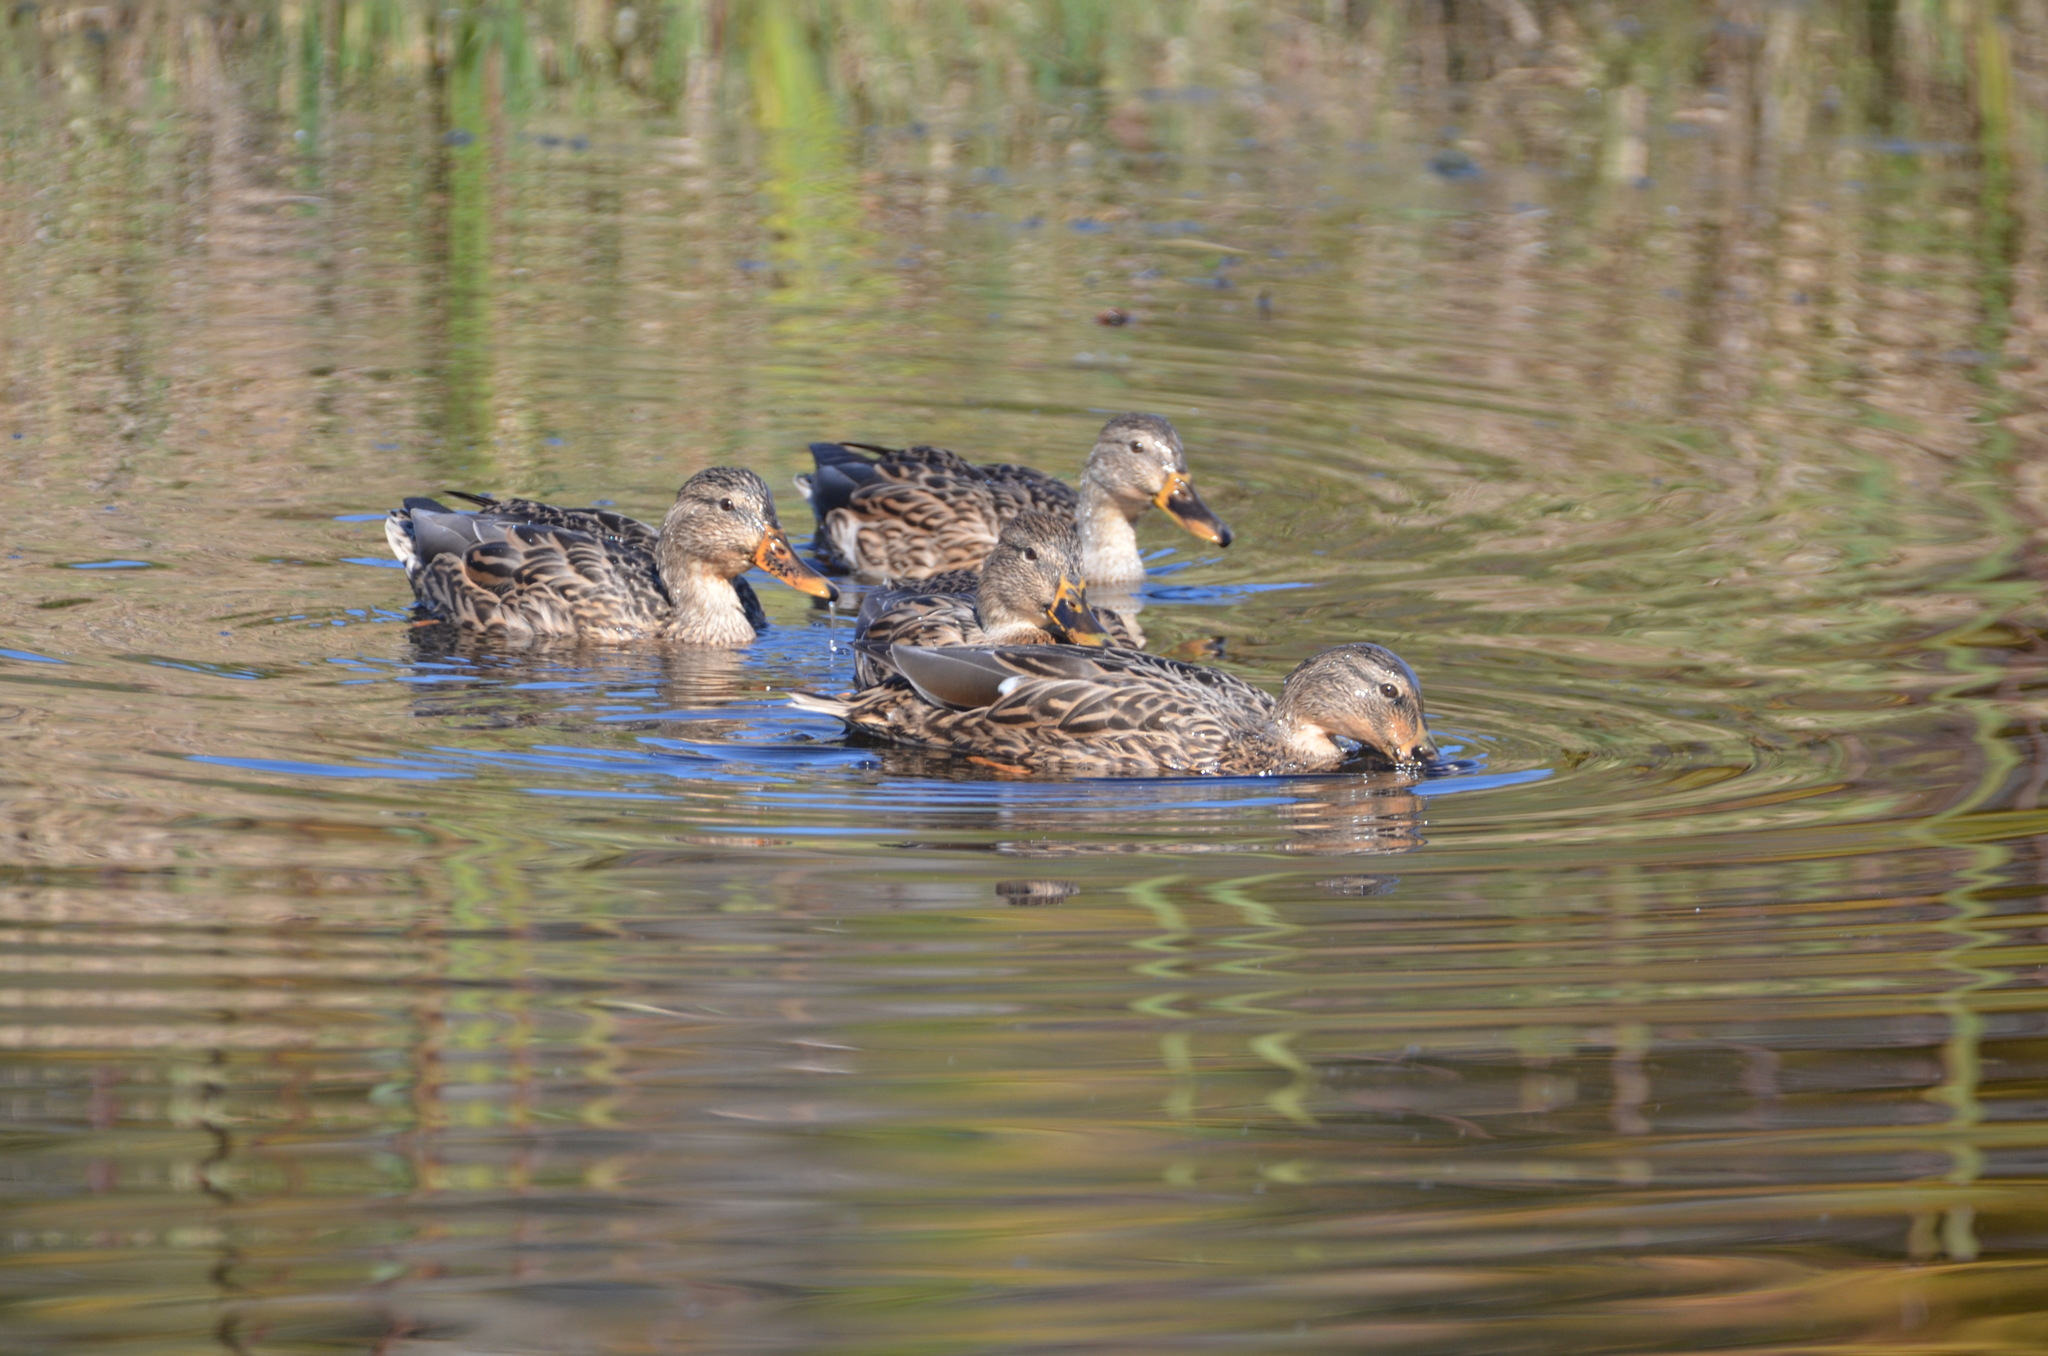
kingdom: Animalia
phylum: Chordata
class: Aves
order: Anseriformes
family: Anatidae
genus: Anas
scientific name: Anas platyrhynchos
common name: Mallard
